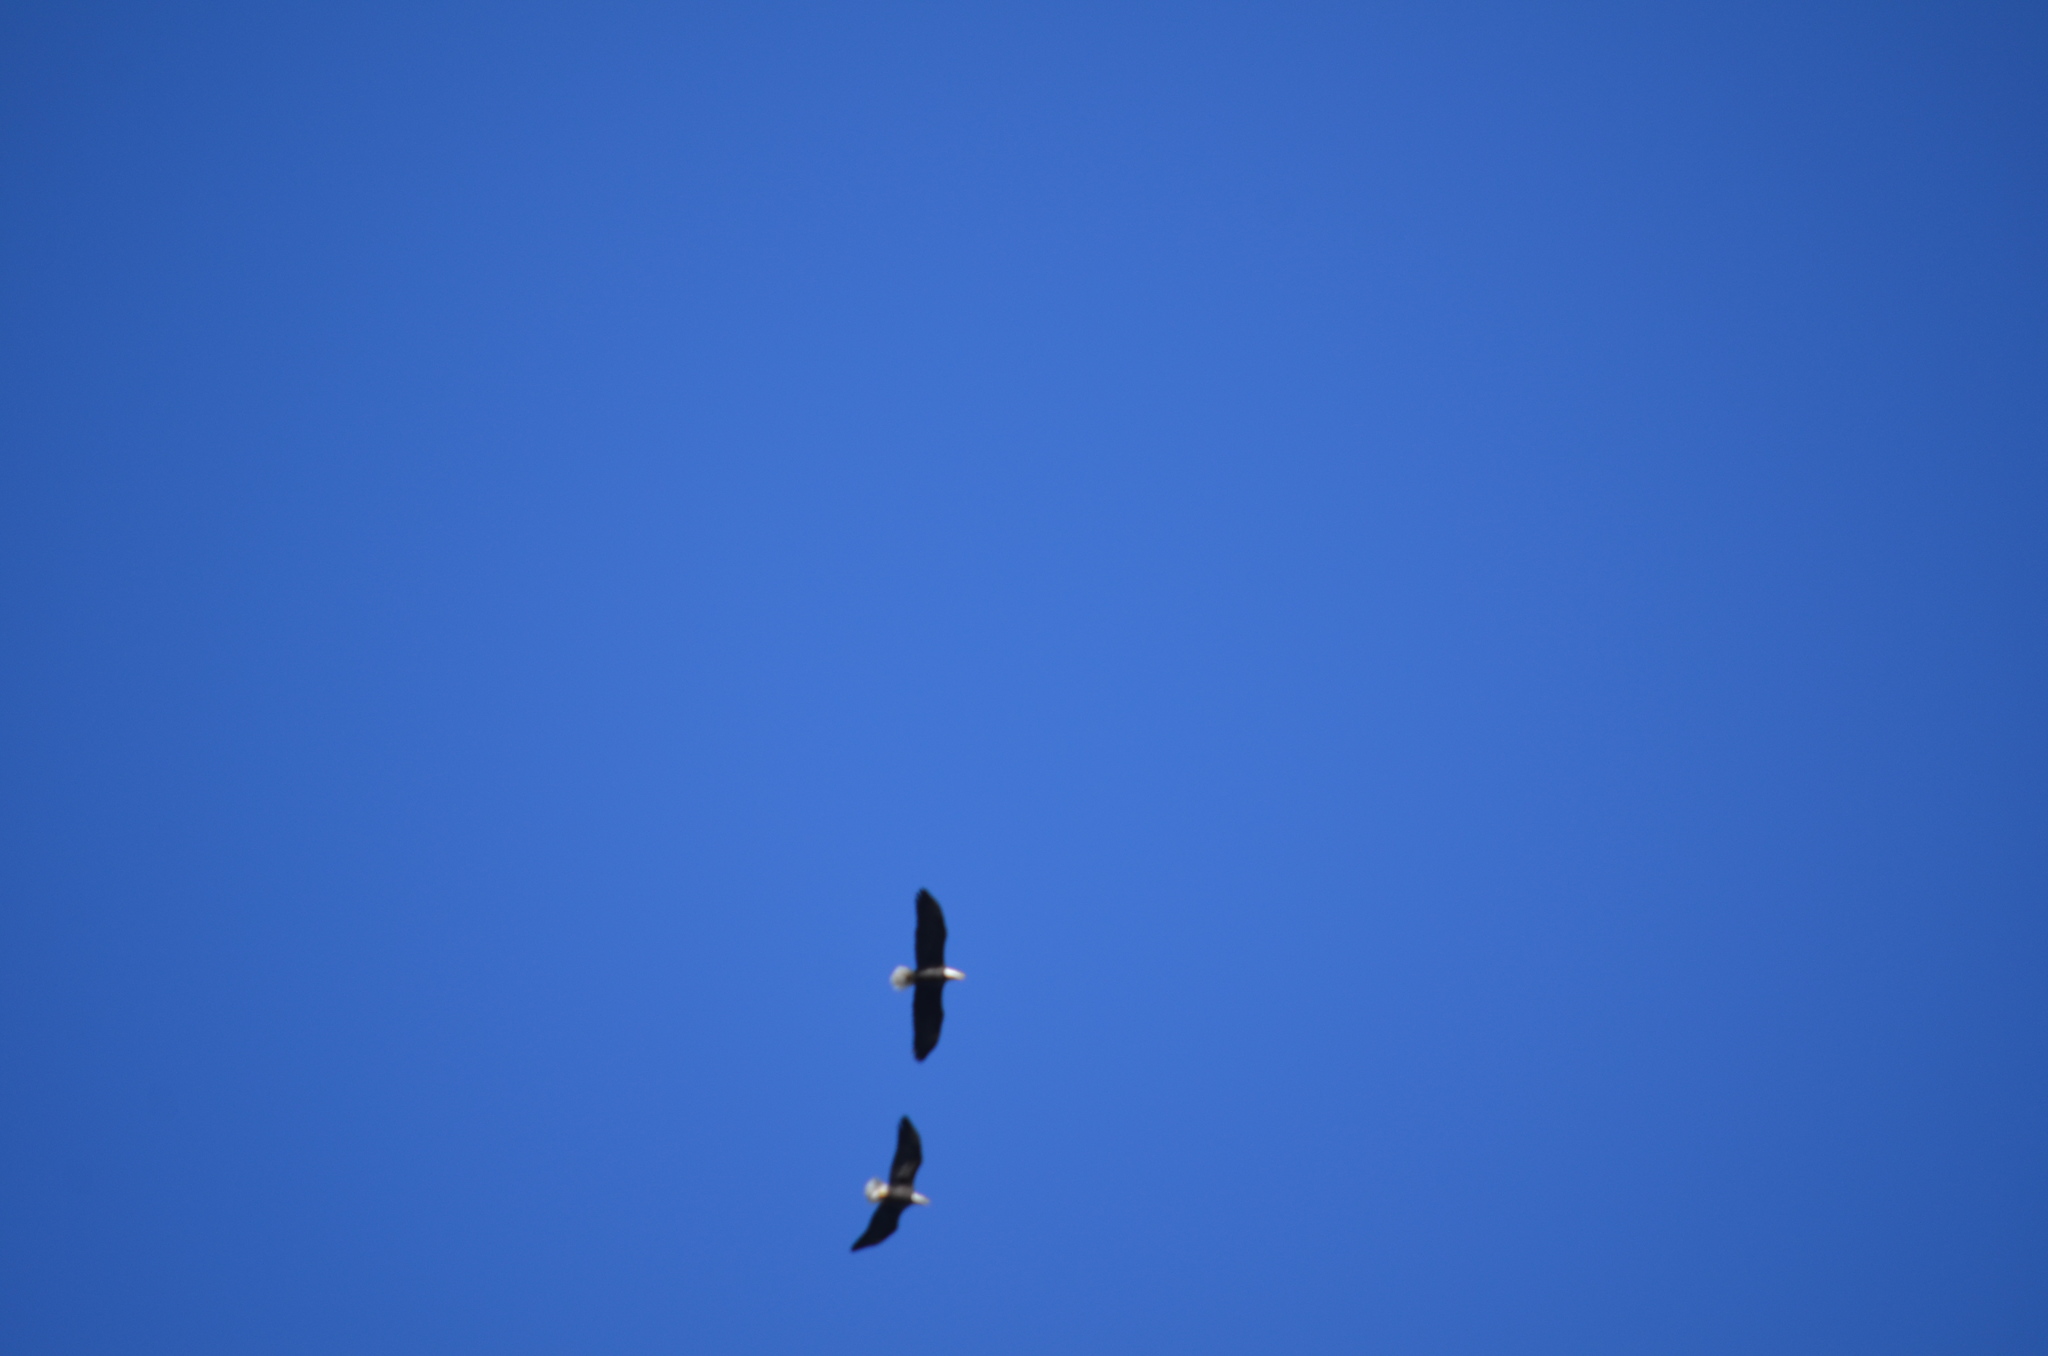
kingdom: Animalia
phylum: Chordata
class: Aves
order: Accipitriformes
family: Accipitridae
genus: Haliaeetus
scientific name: Haliaeetus leucocephalus
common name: Bald eagle
